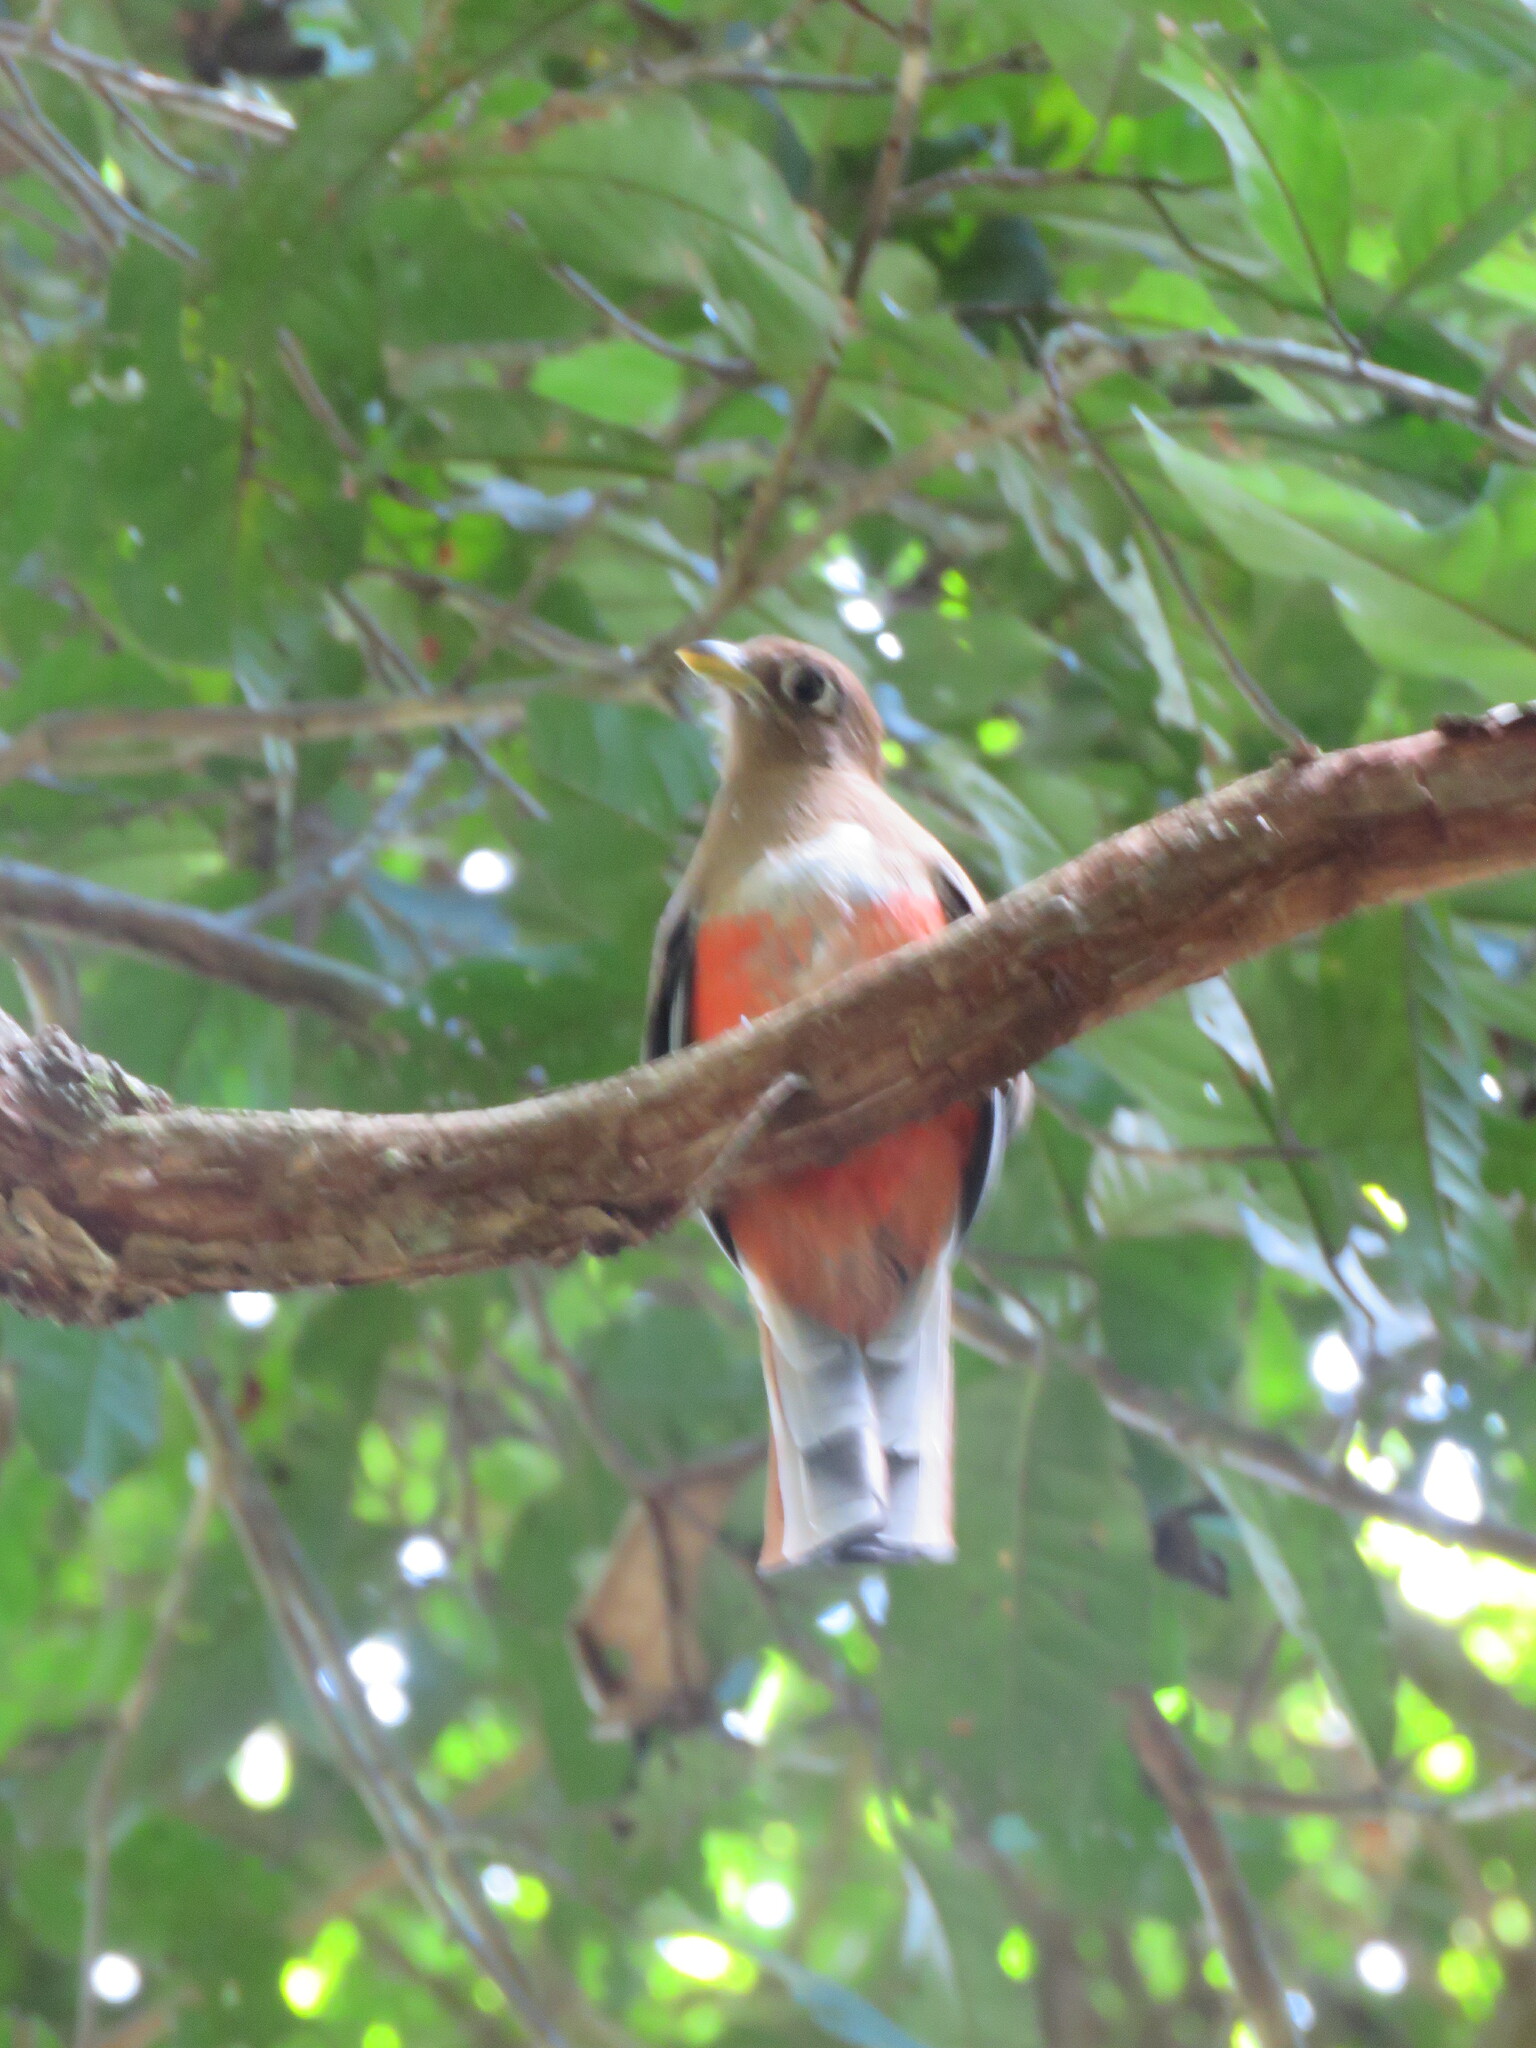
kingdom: Animalia
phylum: Chordata
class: Aves
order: Trogoniformes
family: Trogonidae
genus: Trogon
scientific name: Trogon collaris
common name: Collared trogon
